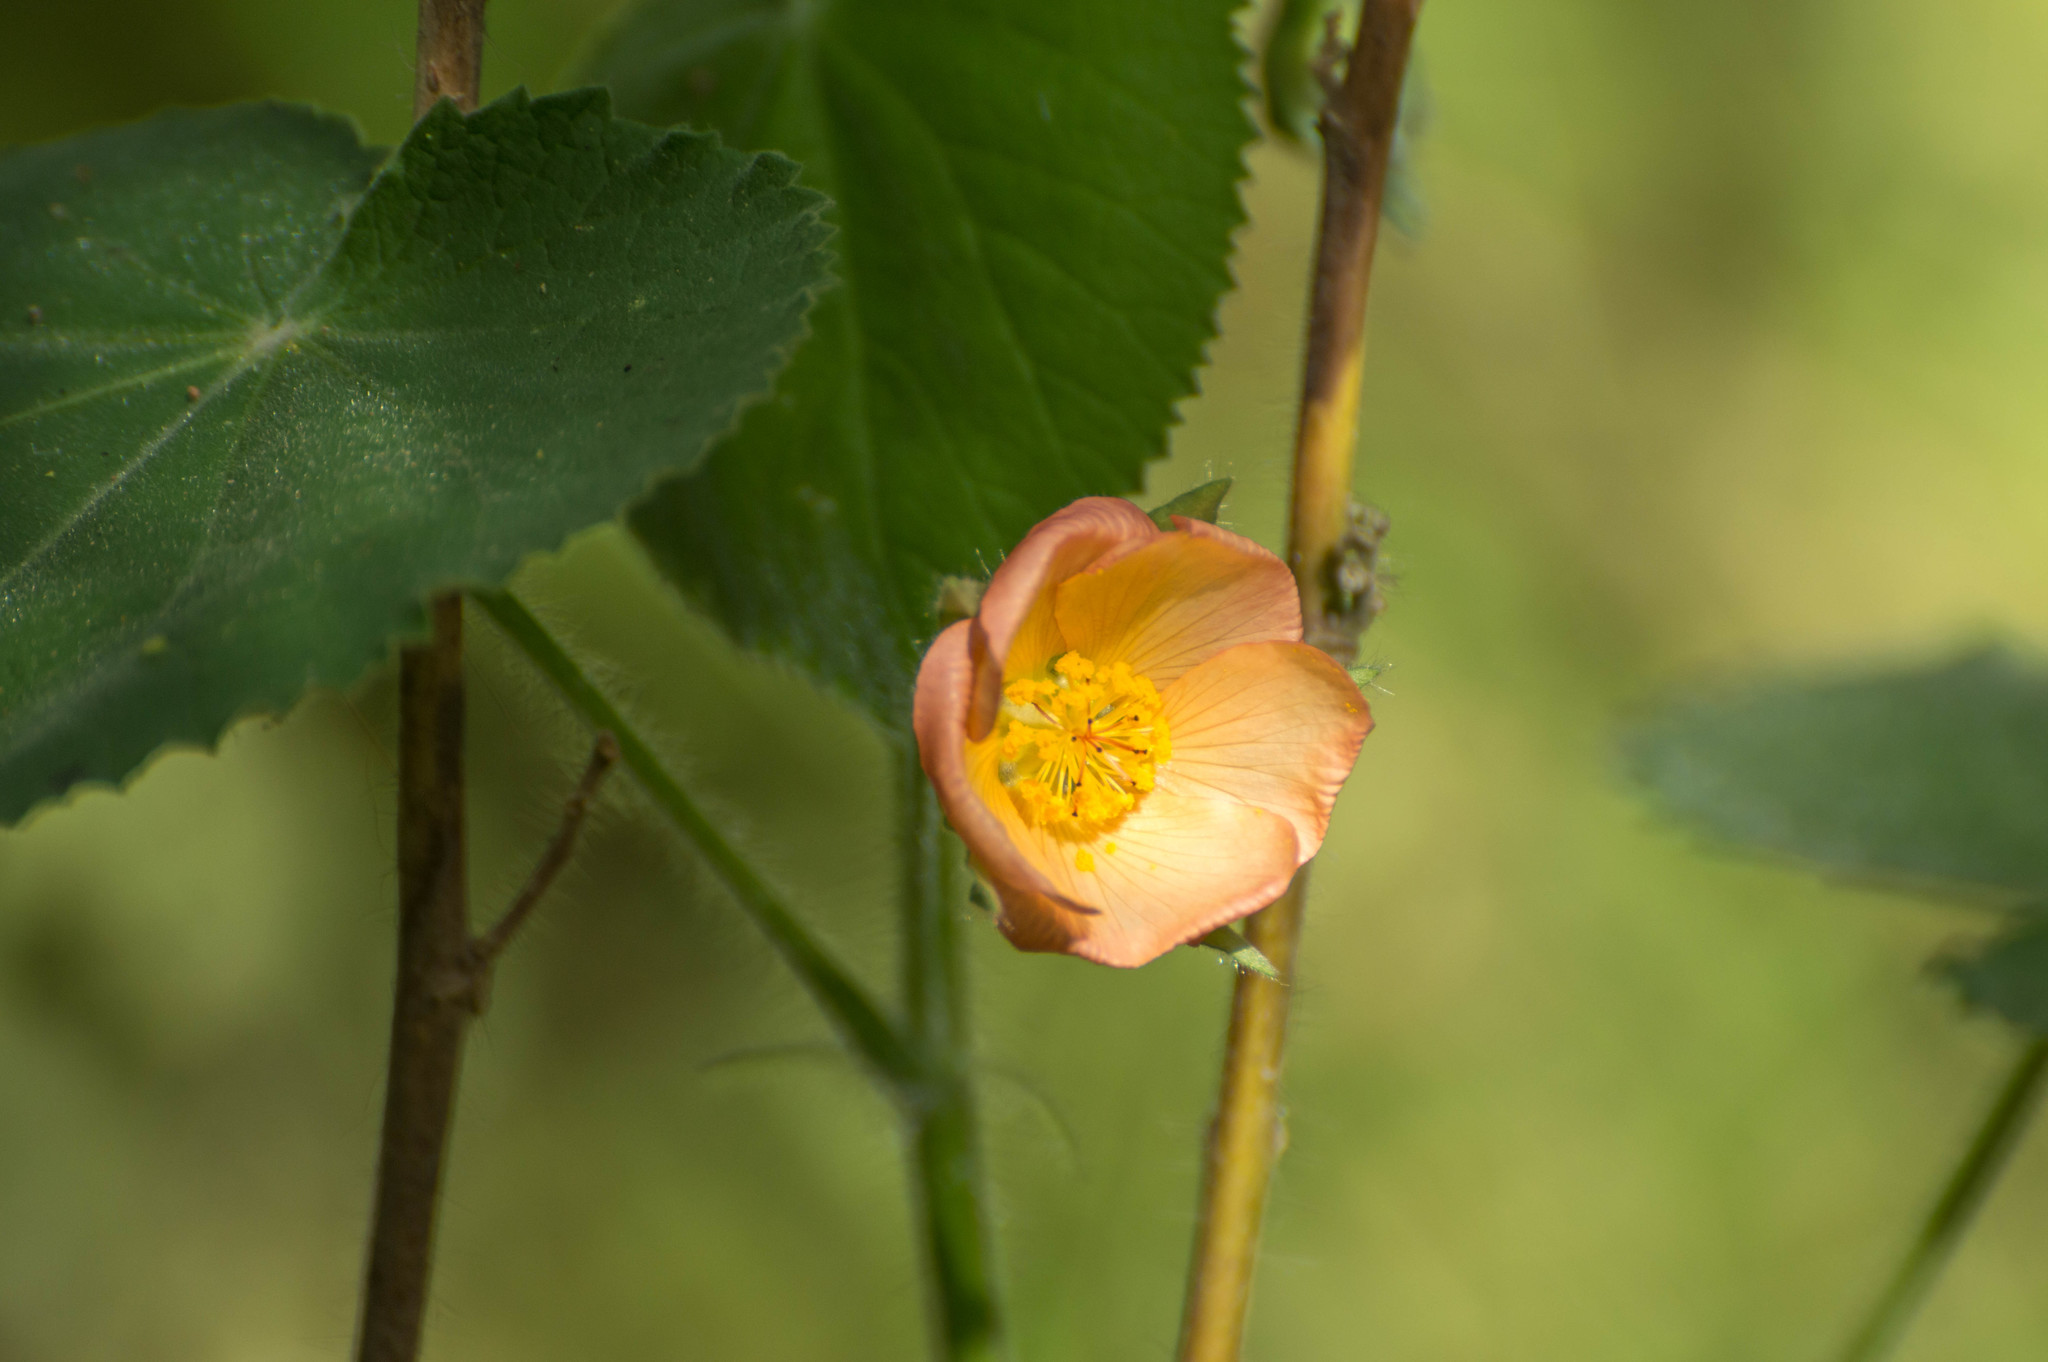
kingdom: Plantae
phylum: Tracheophyta
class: Magnoliopsida
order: Malvales
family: Malvaceae
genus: Callianthe
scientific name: Callianthe pauciflora
